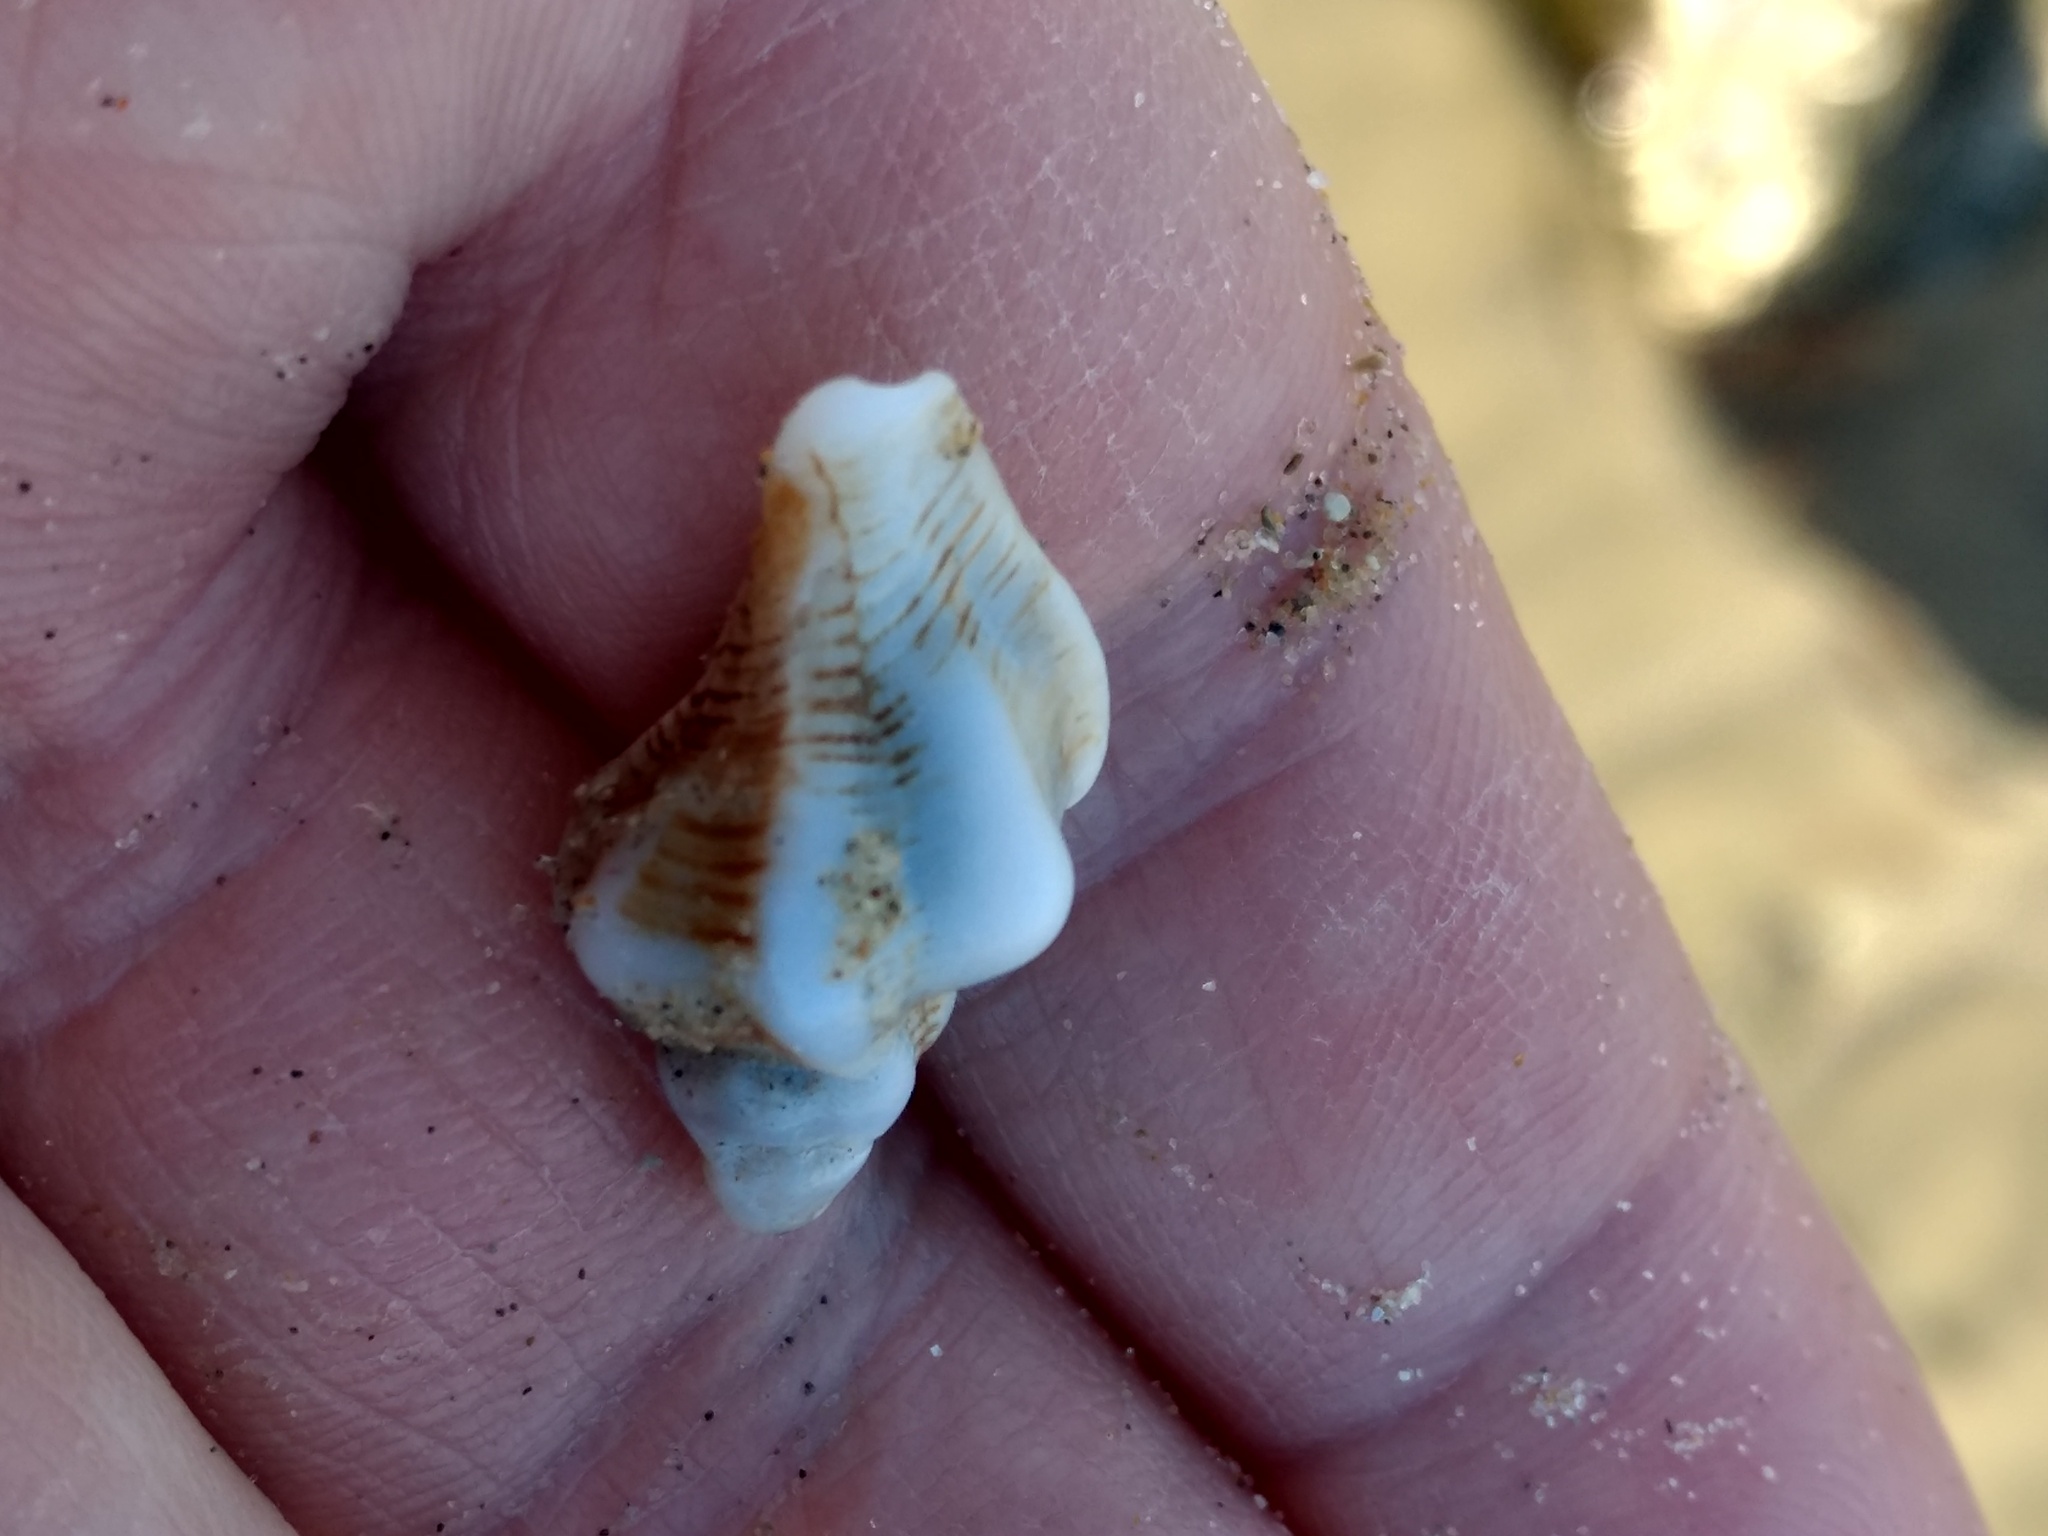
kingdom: Animalia
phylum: Mollusca
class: Gastropoda
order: Neogastropoda
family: Muricidae
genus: Pteropurpura
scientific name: Pteropurpura festiva
